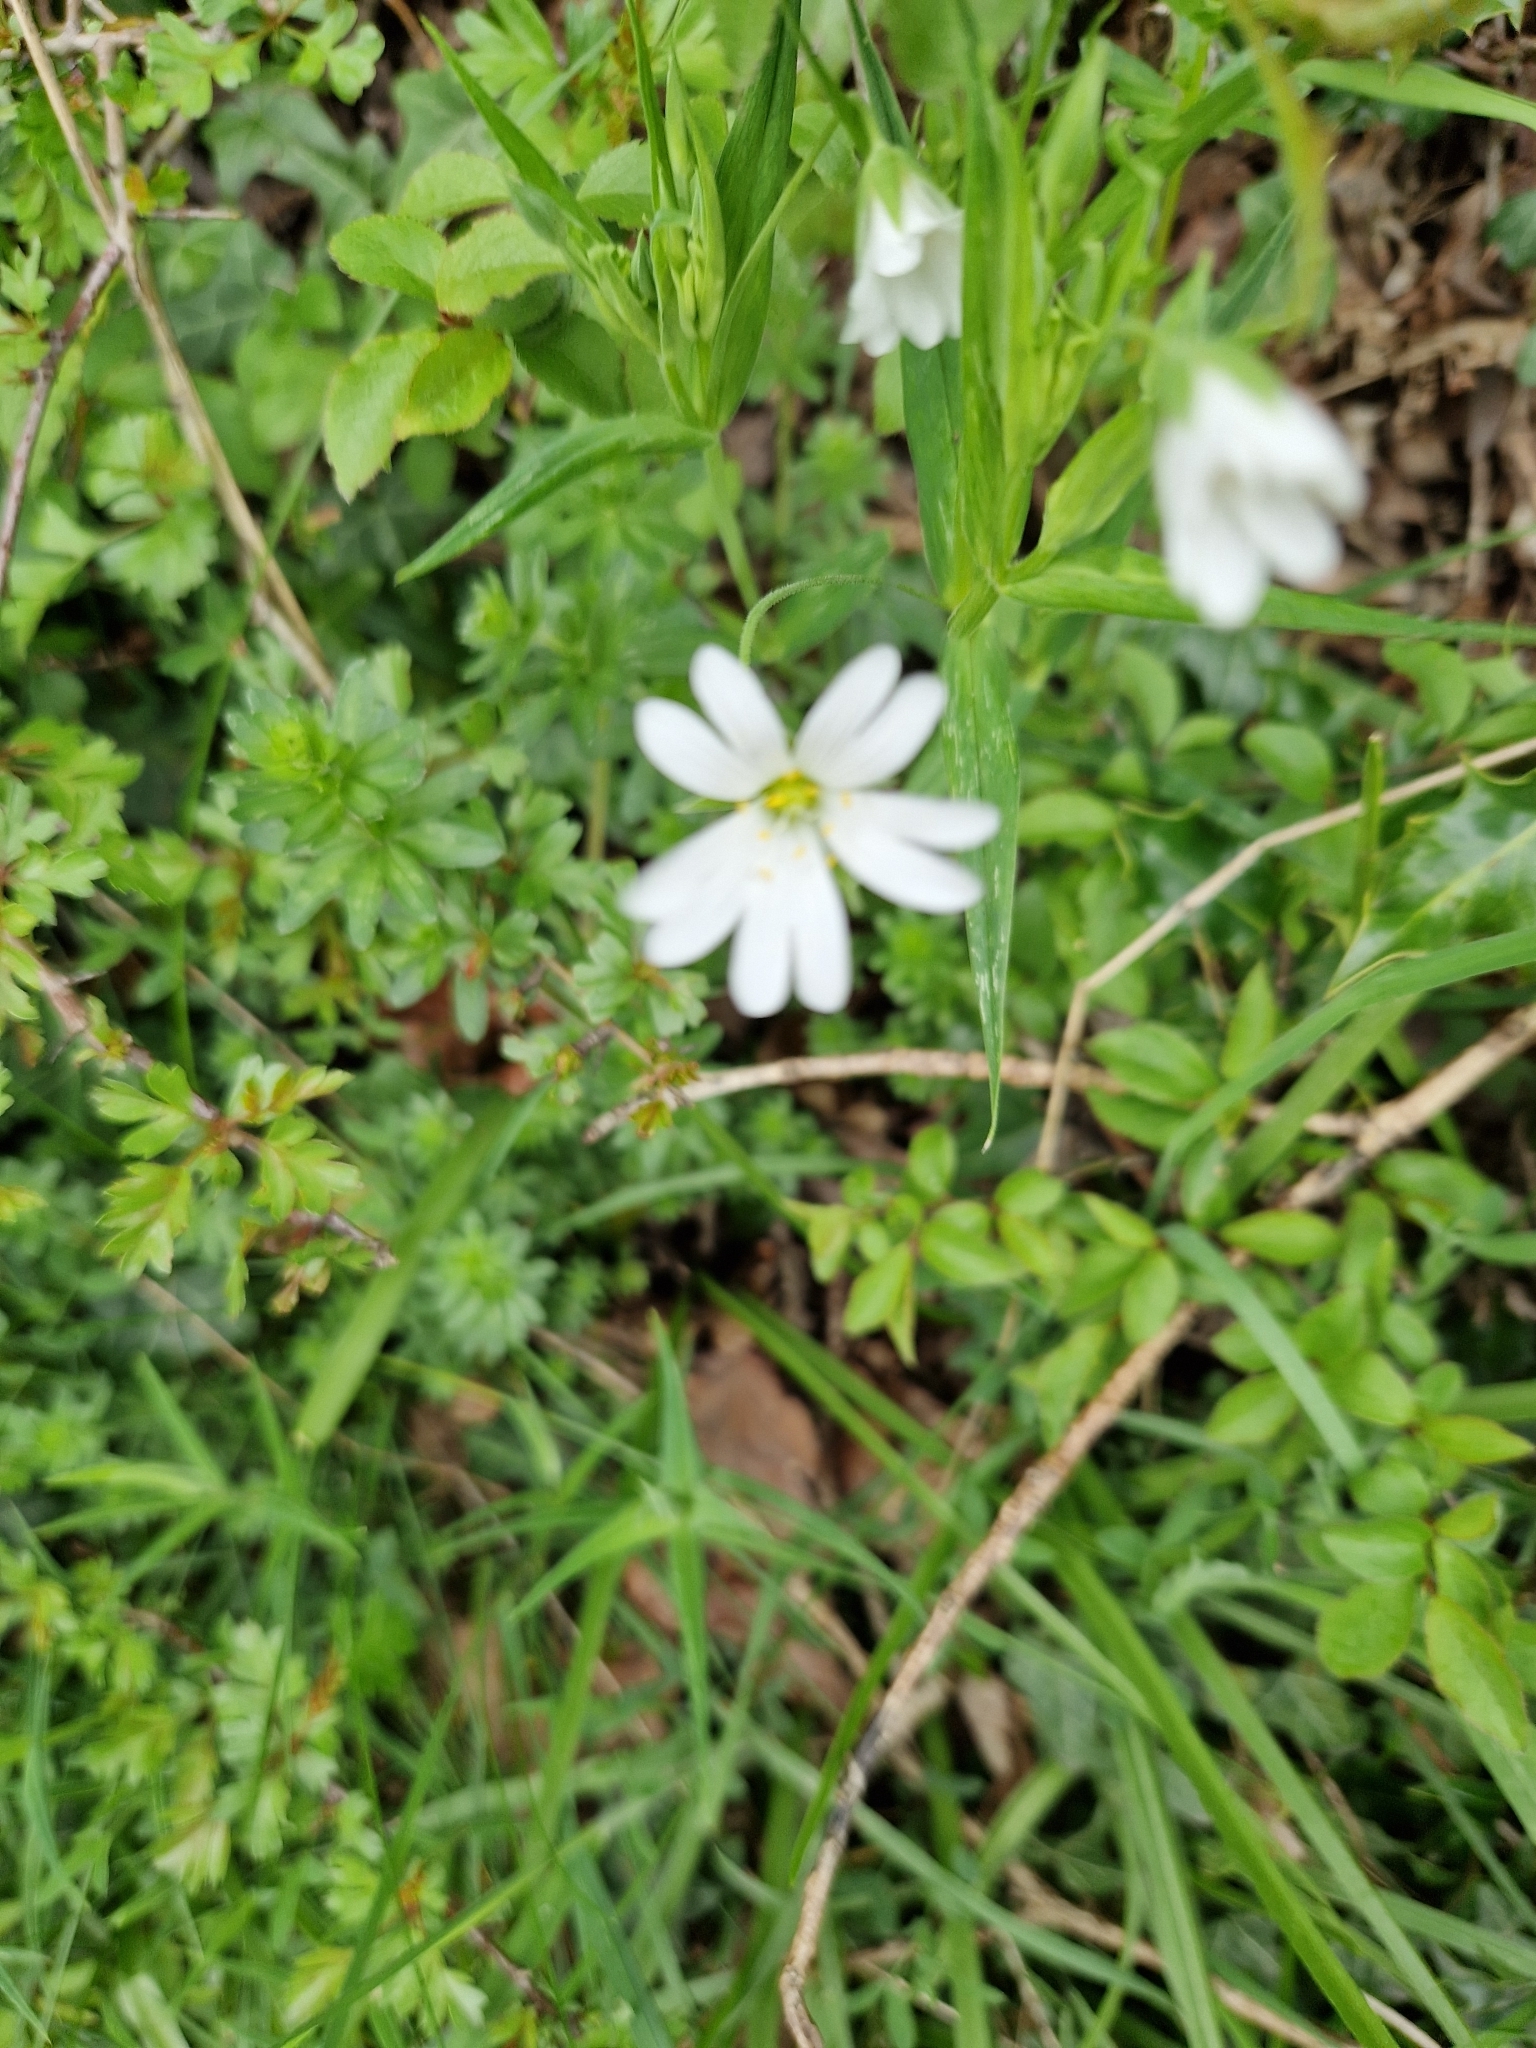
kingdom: Plantae
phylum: Tracheophyta
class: Magnoliopsida
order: Caryophyllales
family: Caryophyllaceae
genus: Rabelera
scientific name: Rabelera holostea
